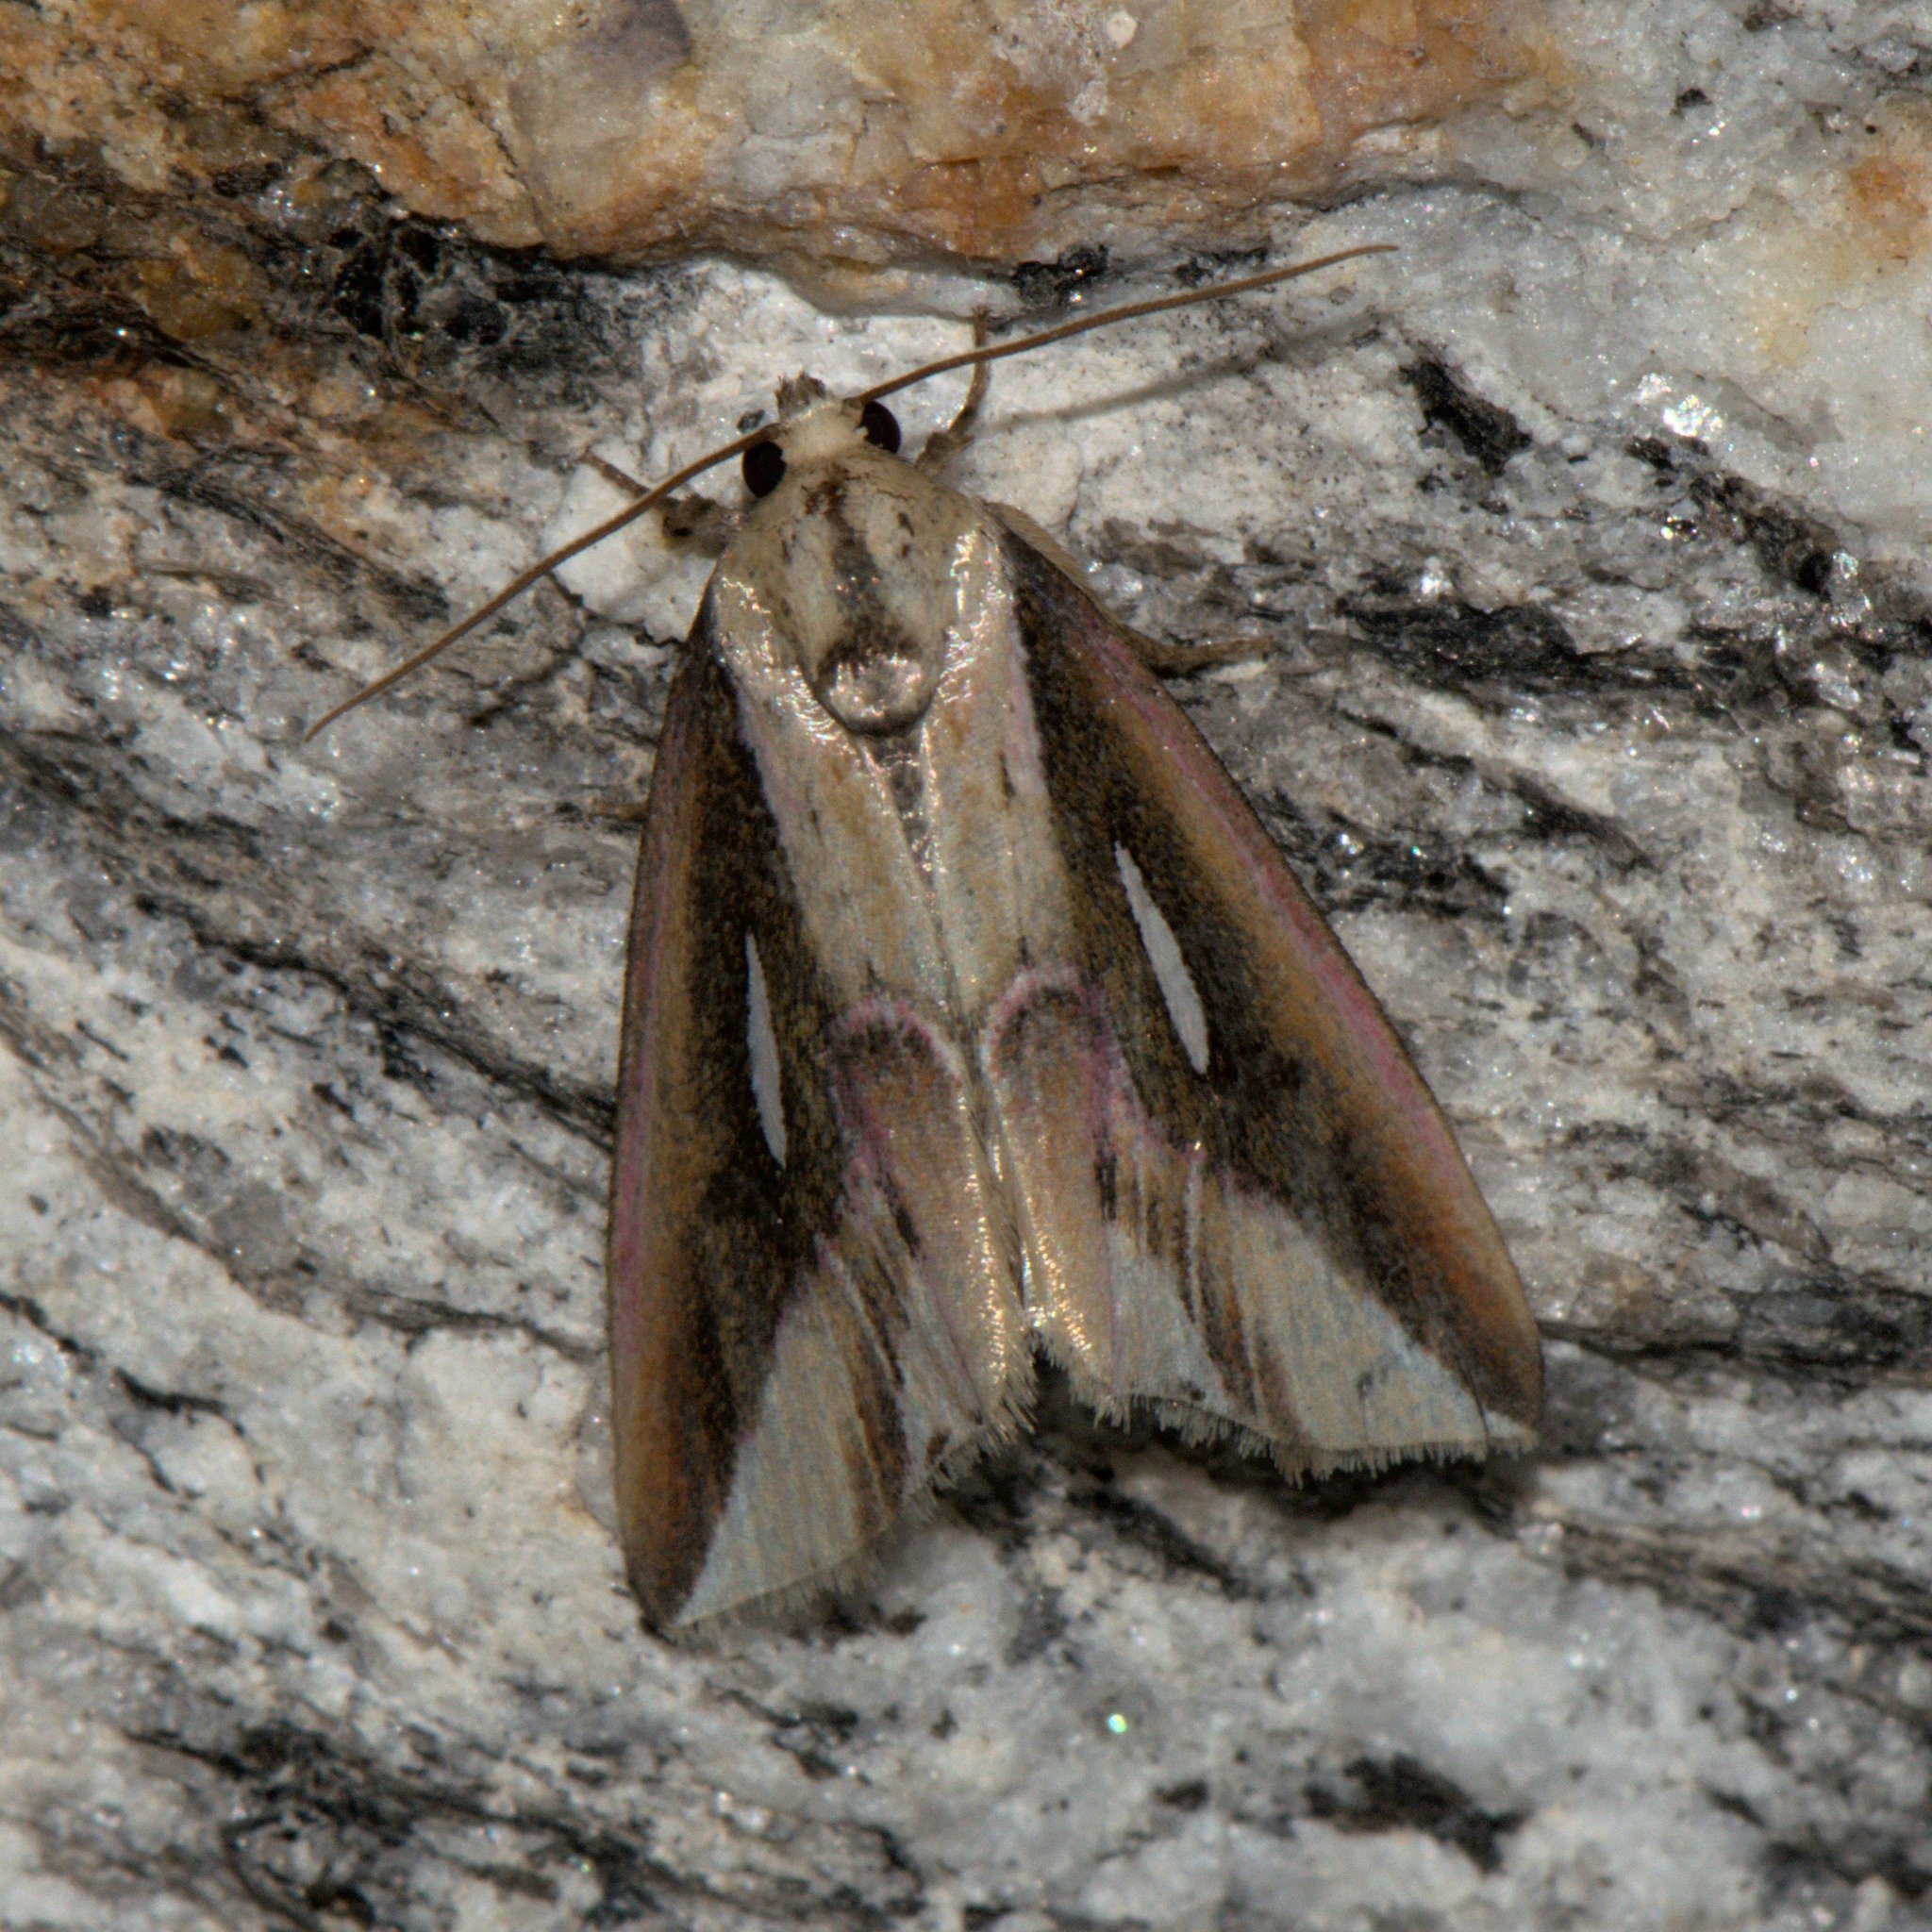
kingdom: Animalia
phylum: Arthropoda
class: Insecta
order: Lepidoptera
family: Noctuidae
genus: Micardia
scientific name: Micardia pulcherrima
